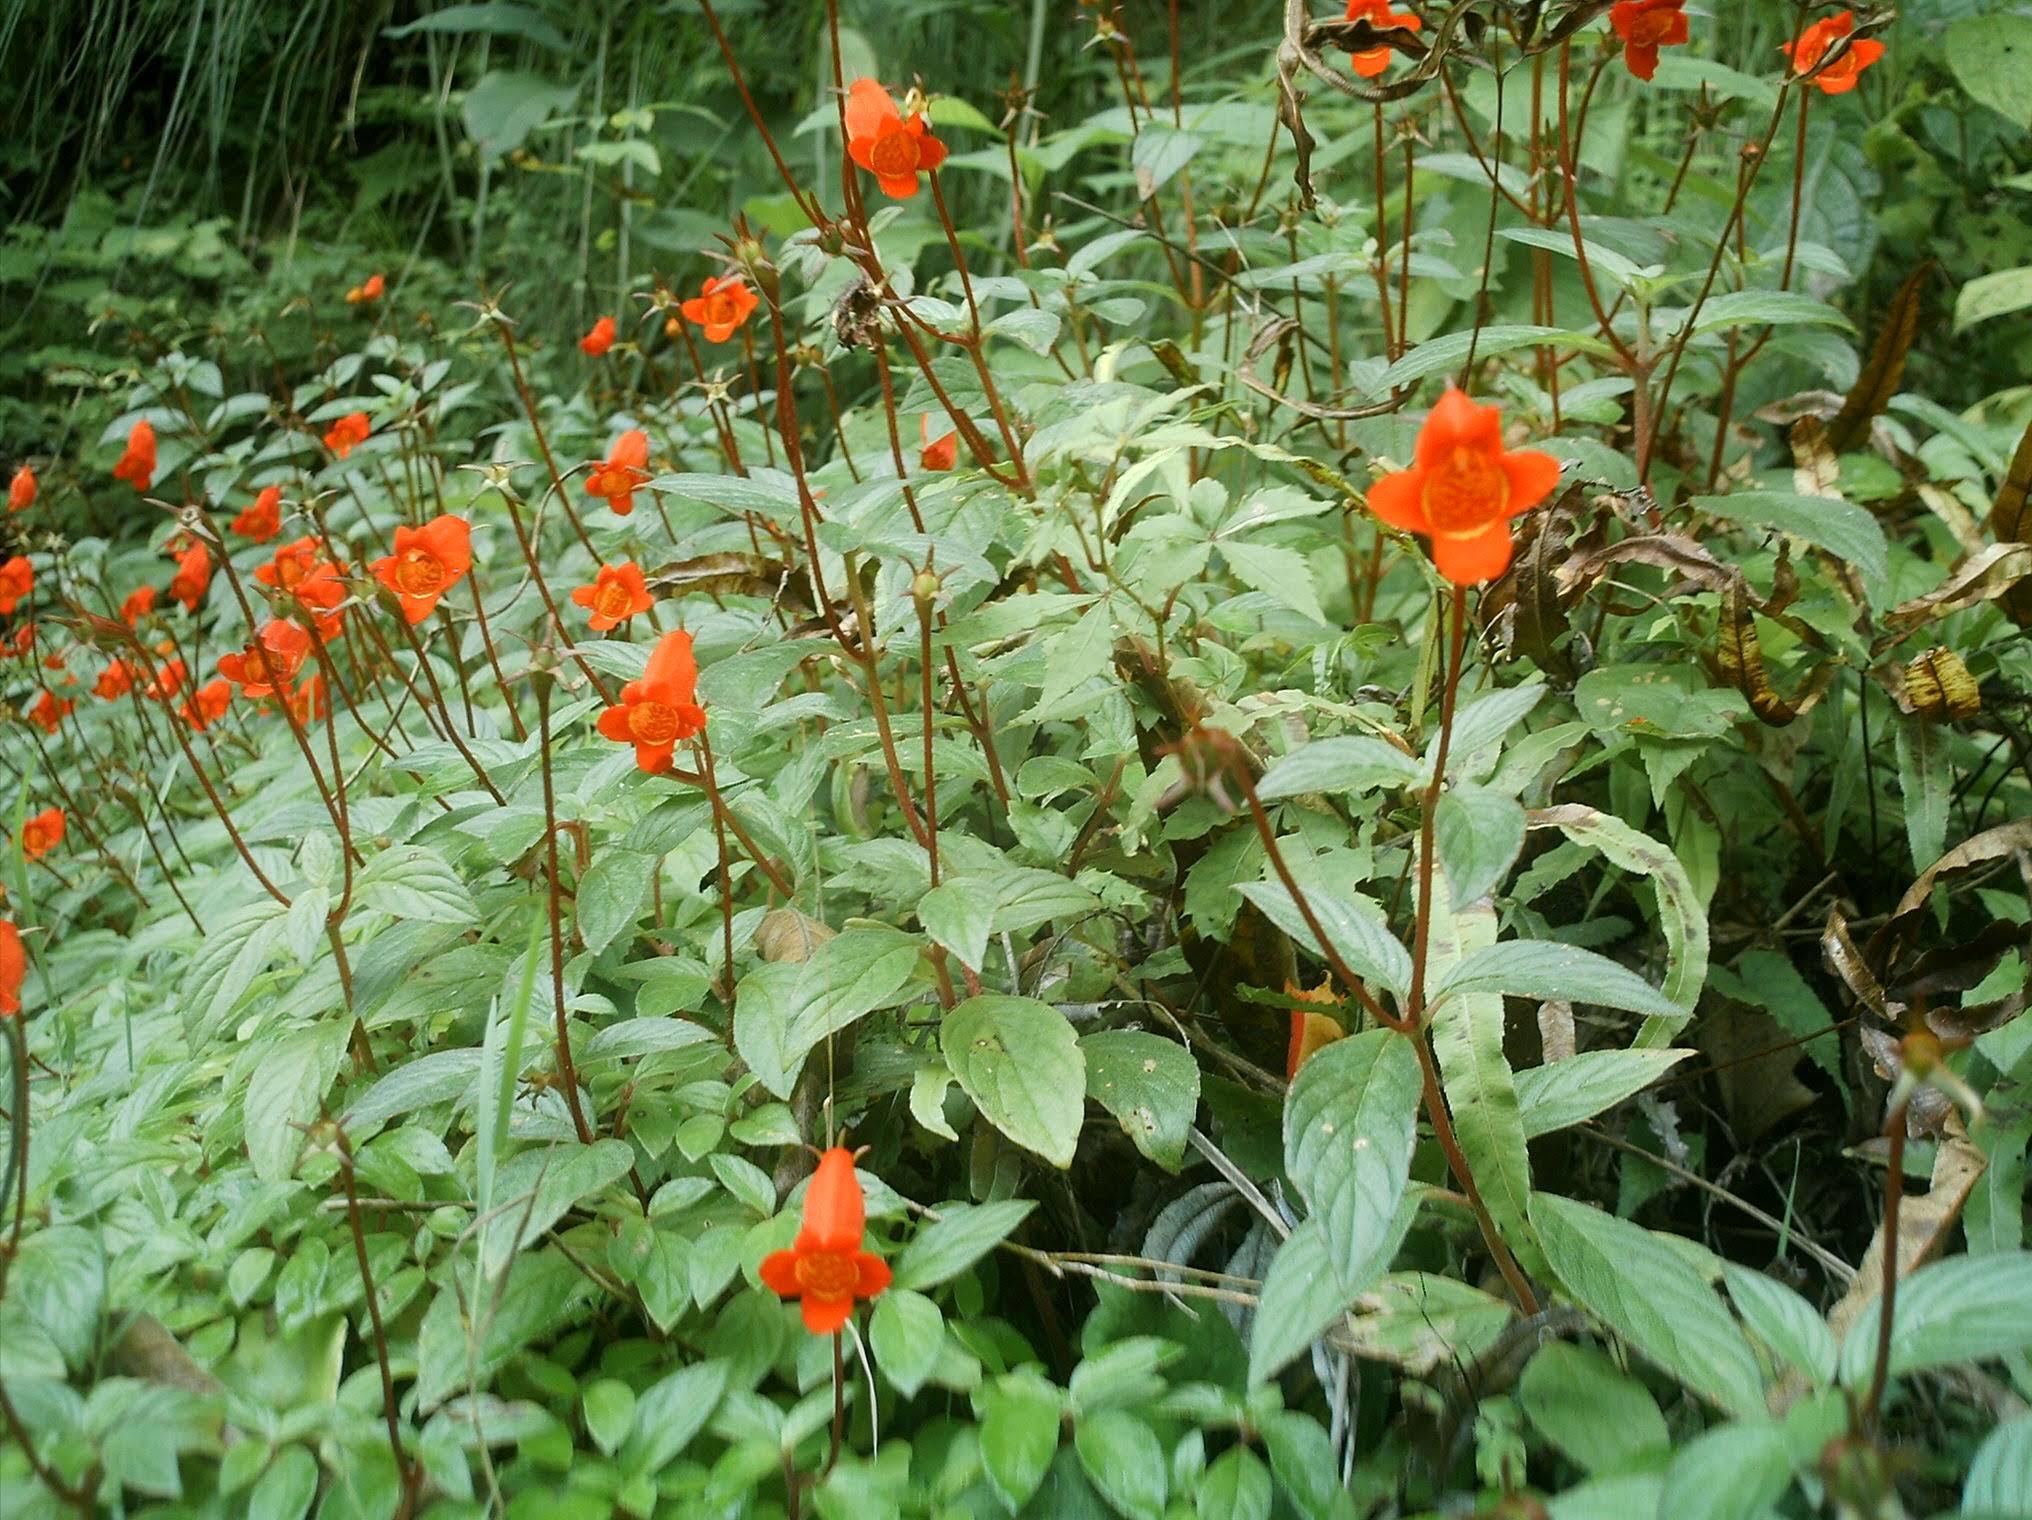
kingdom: Plantae
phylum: Tracheophyta
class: Magnoliopsida
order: Lamiales
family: Gesneriaceae
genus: Seemannia
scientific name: Seemannia nematanthodes
